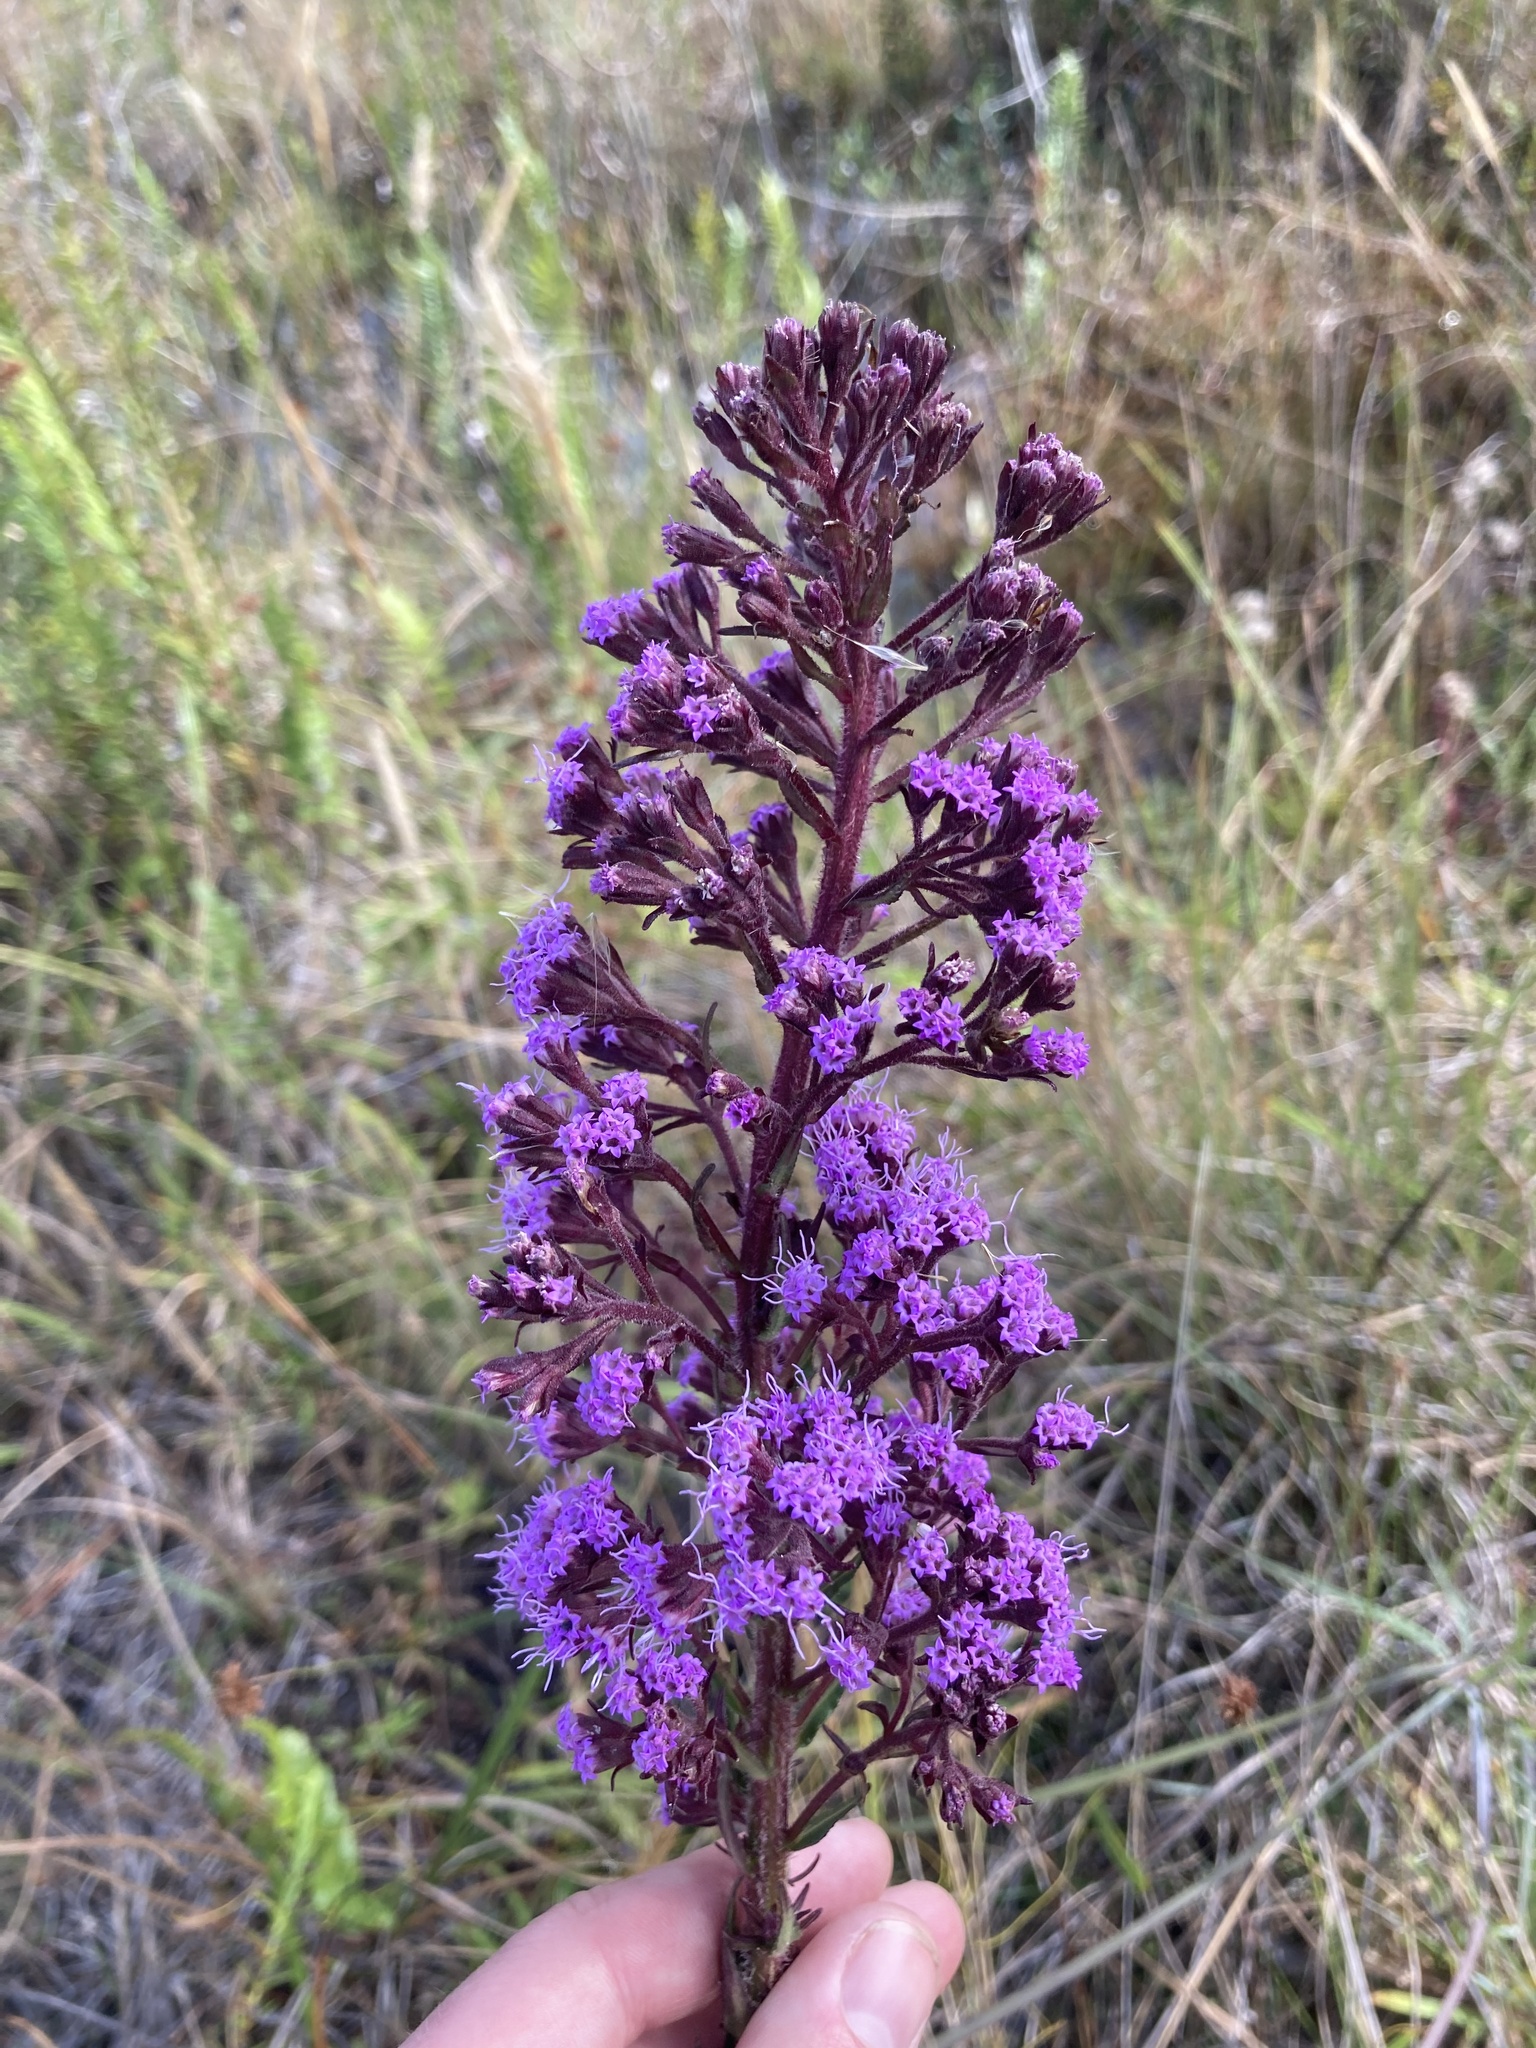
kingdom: Plantae
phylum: Tracheophyta
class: Magnoliopsida
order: Asterales
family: Asteraceae
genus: Carphephorus
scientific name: Carphephorus paniculatus
